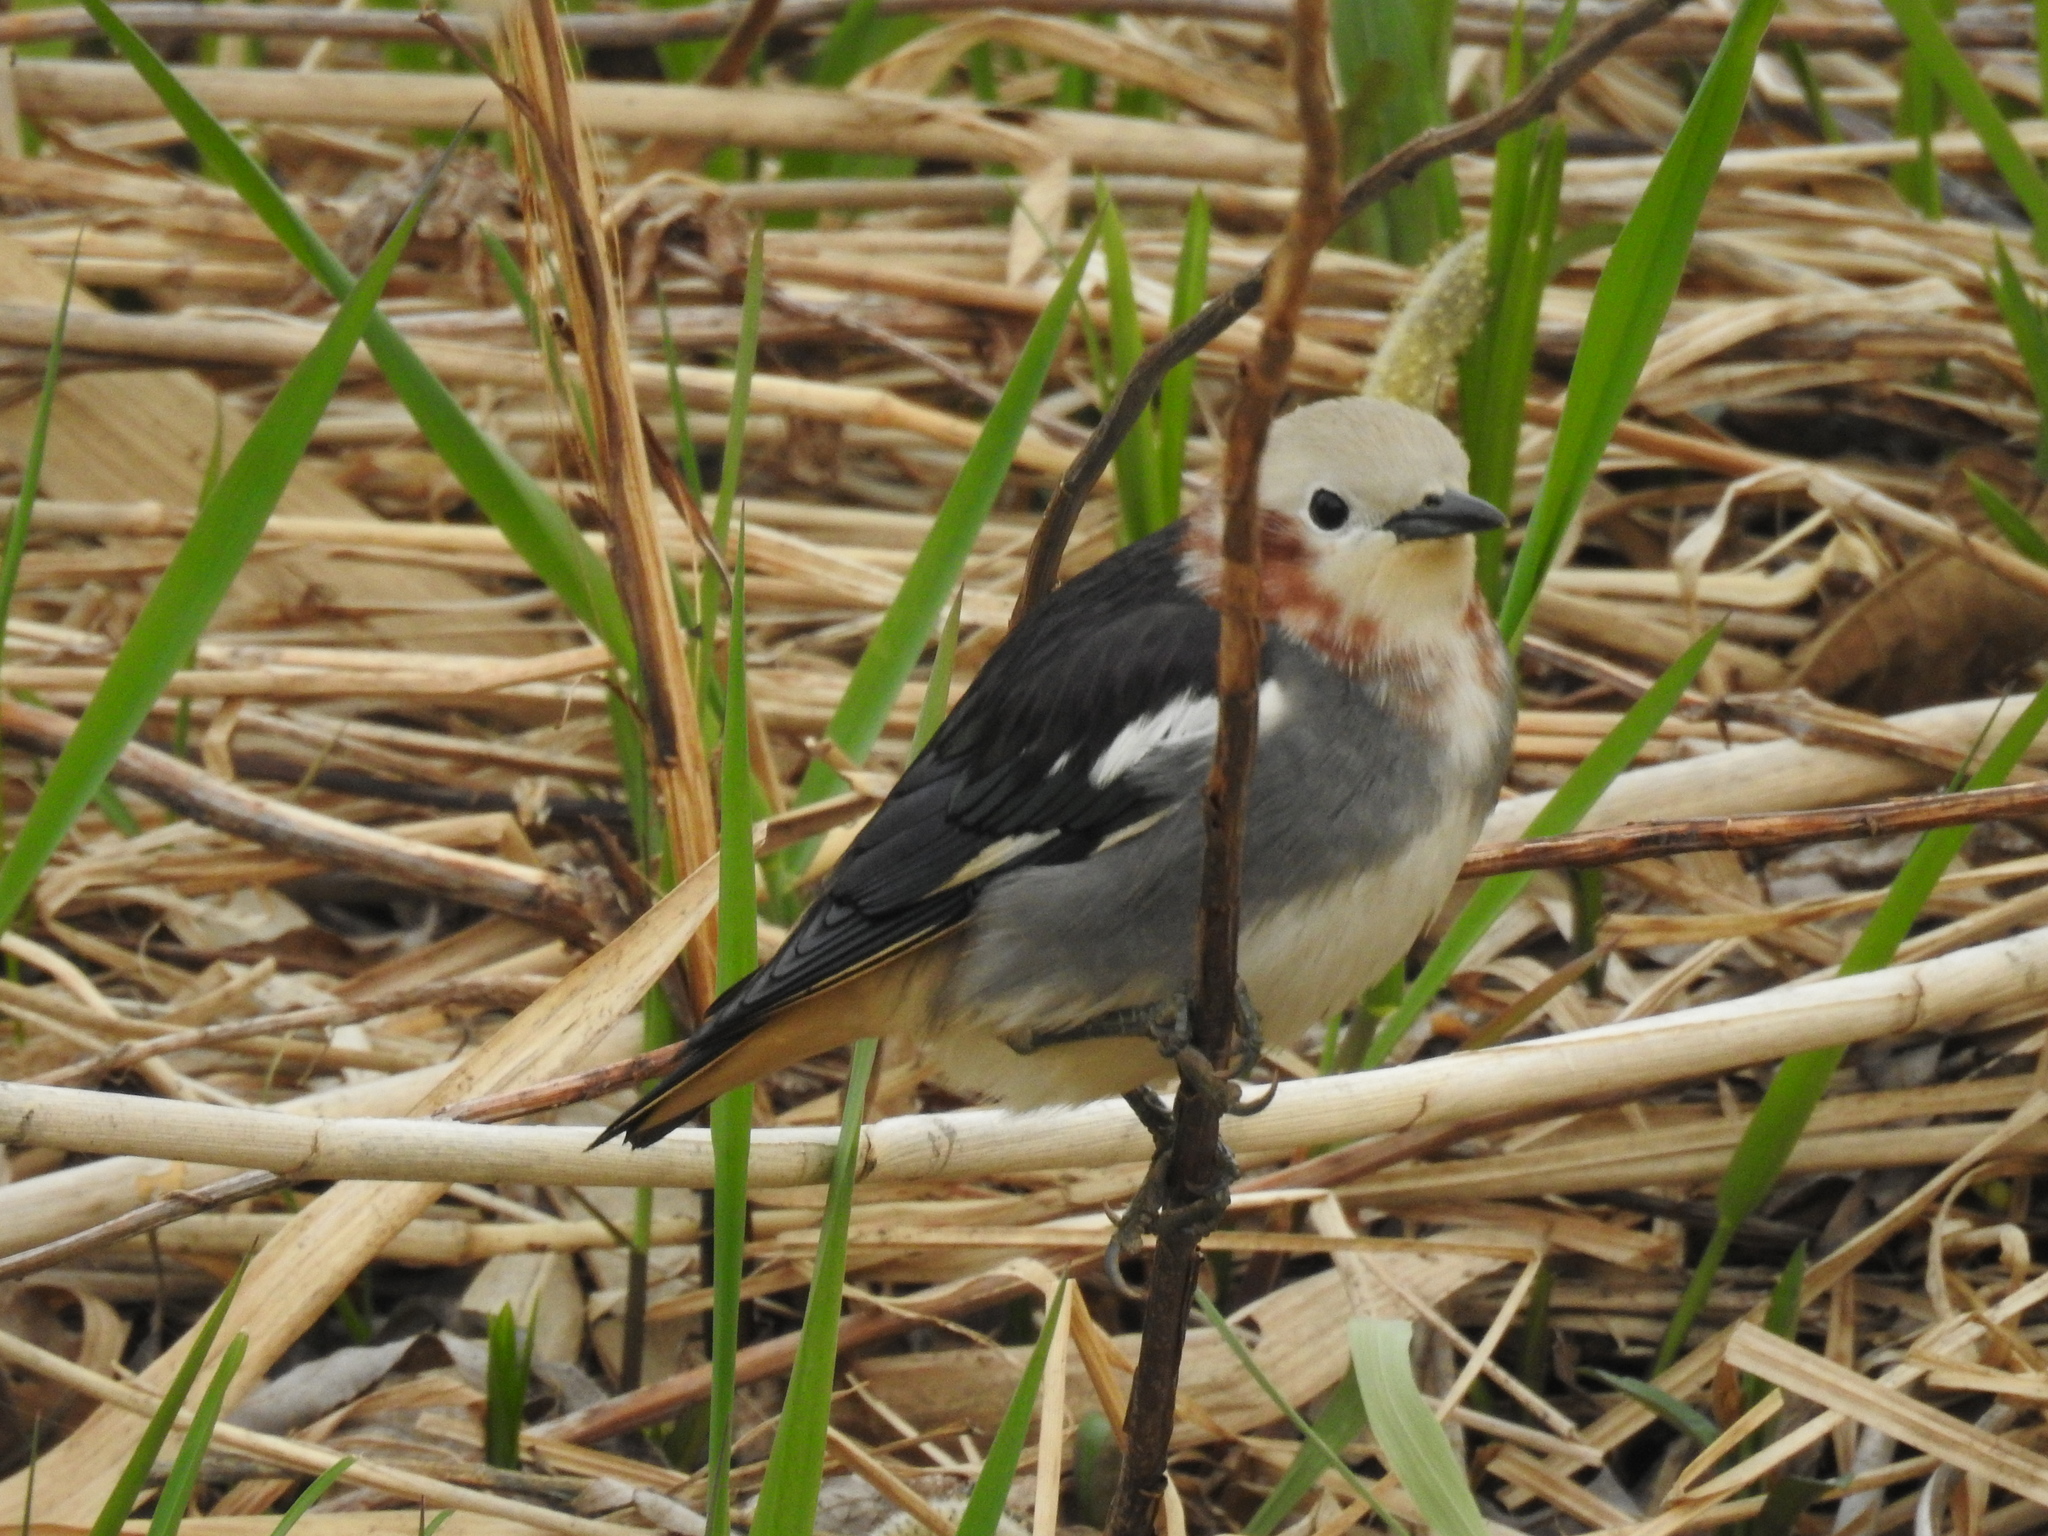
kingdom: Animalia
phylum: Chordata
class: Aves
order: Passeriformes
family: Sturnidae
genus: Agropsar
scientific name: Agropsar philippensis
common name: Chestnut-cheeked starling
